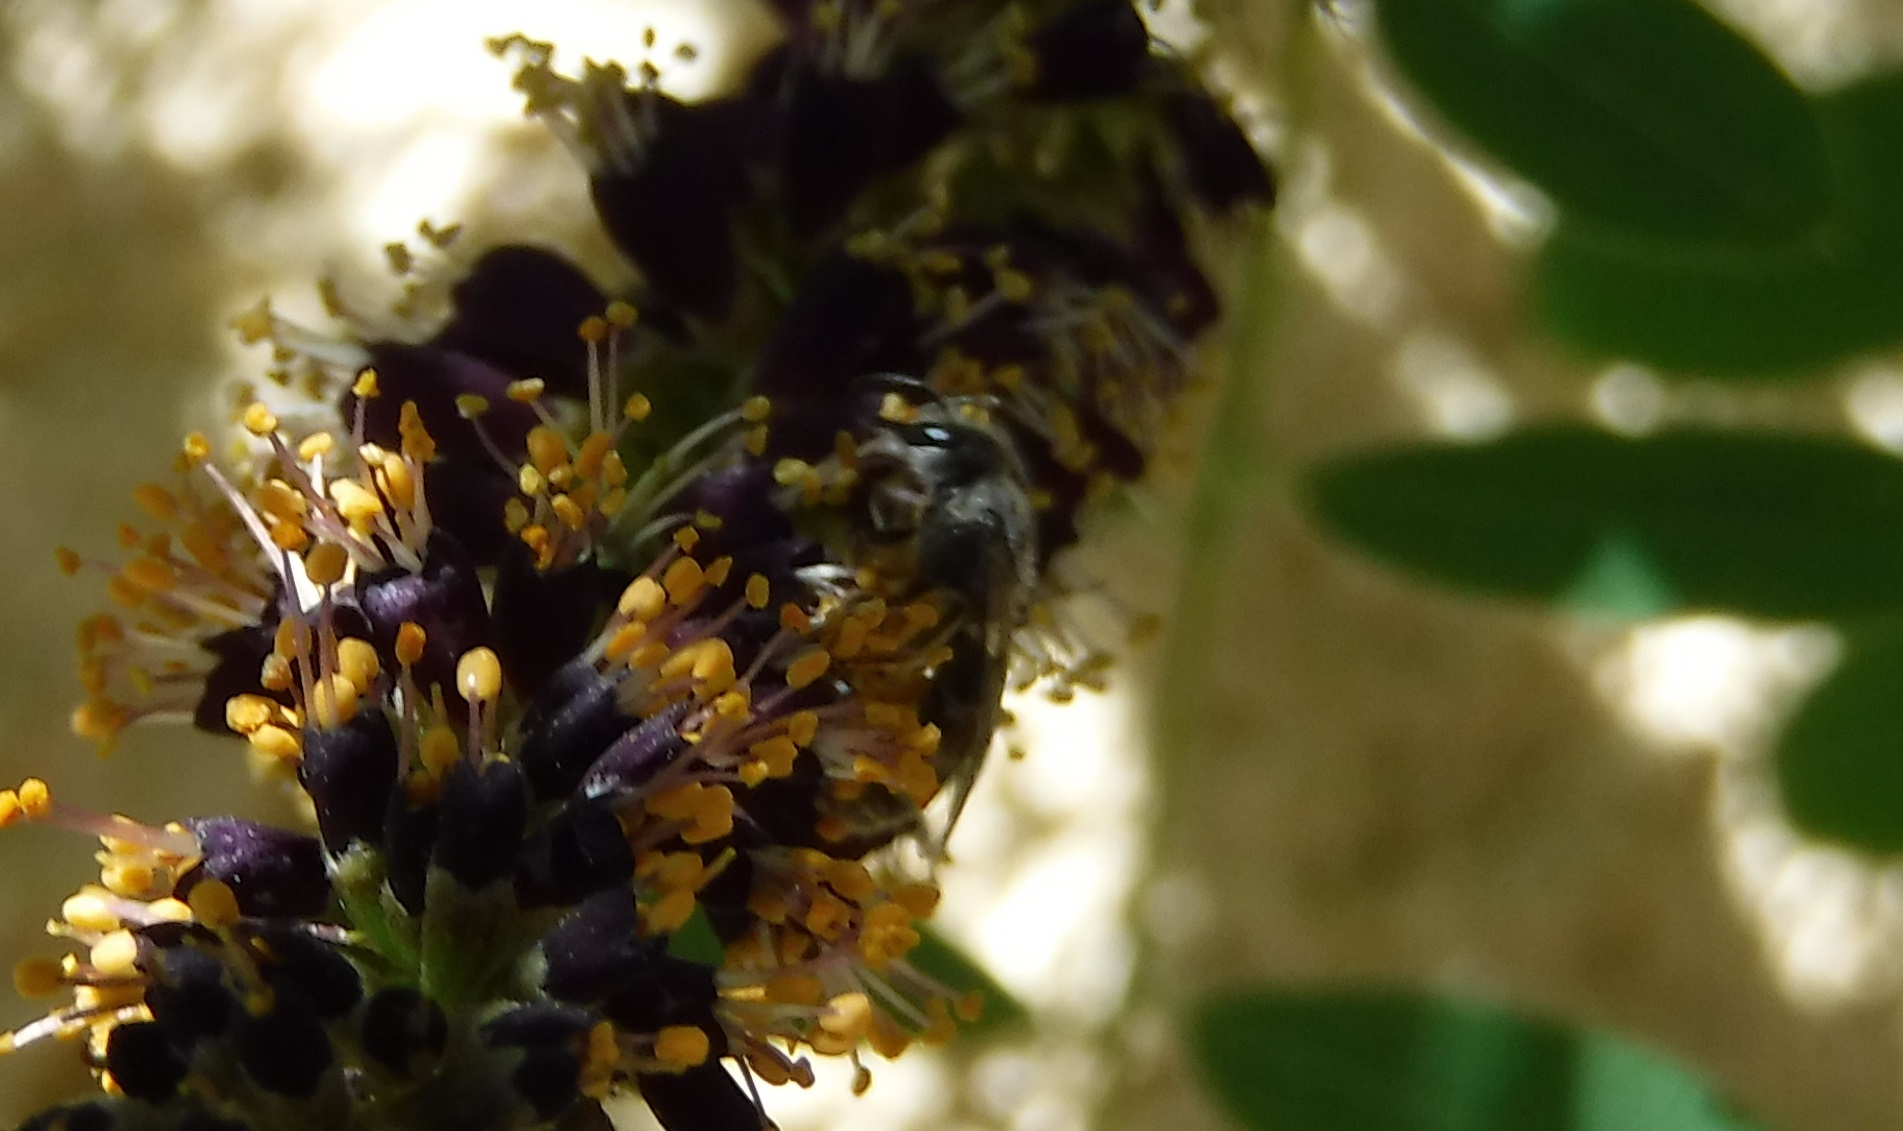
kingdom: Animalia
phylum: Arthropoda
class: Insecta
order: Hymenoptera
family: Halictidae
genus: Lasioglossum
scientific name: Lasioglossum
